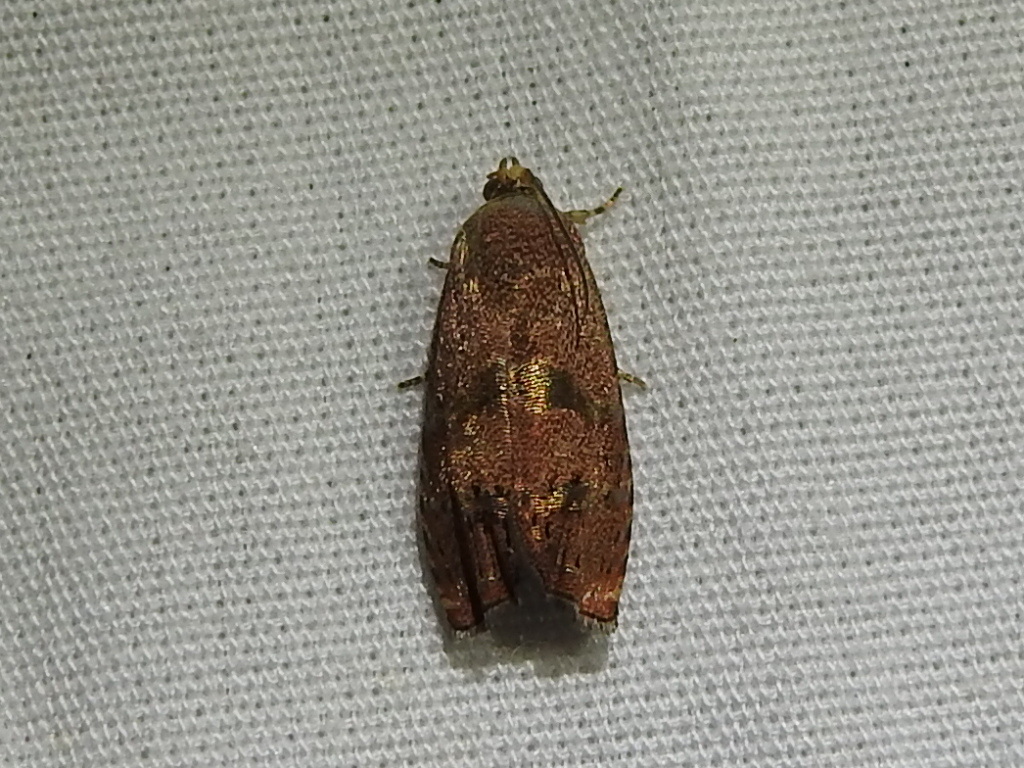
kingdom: Animalia
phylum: Arthropoda
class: Insecta
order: Lepidoptera
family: Tortricidae
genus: Cydia
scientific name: Cydia latiferreana
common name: Filbertworm moth
